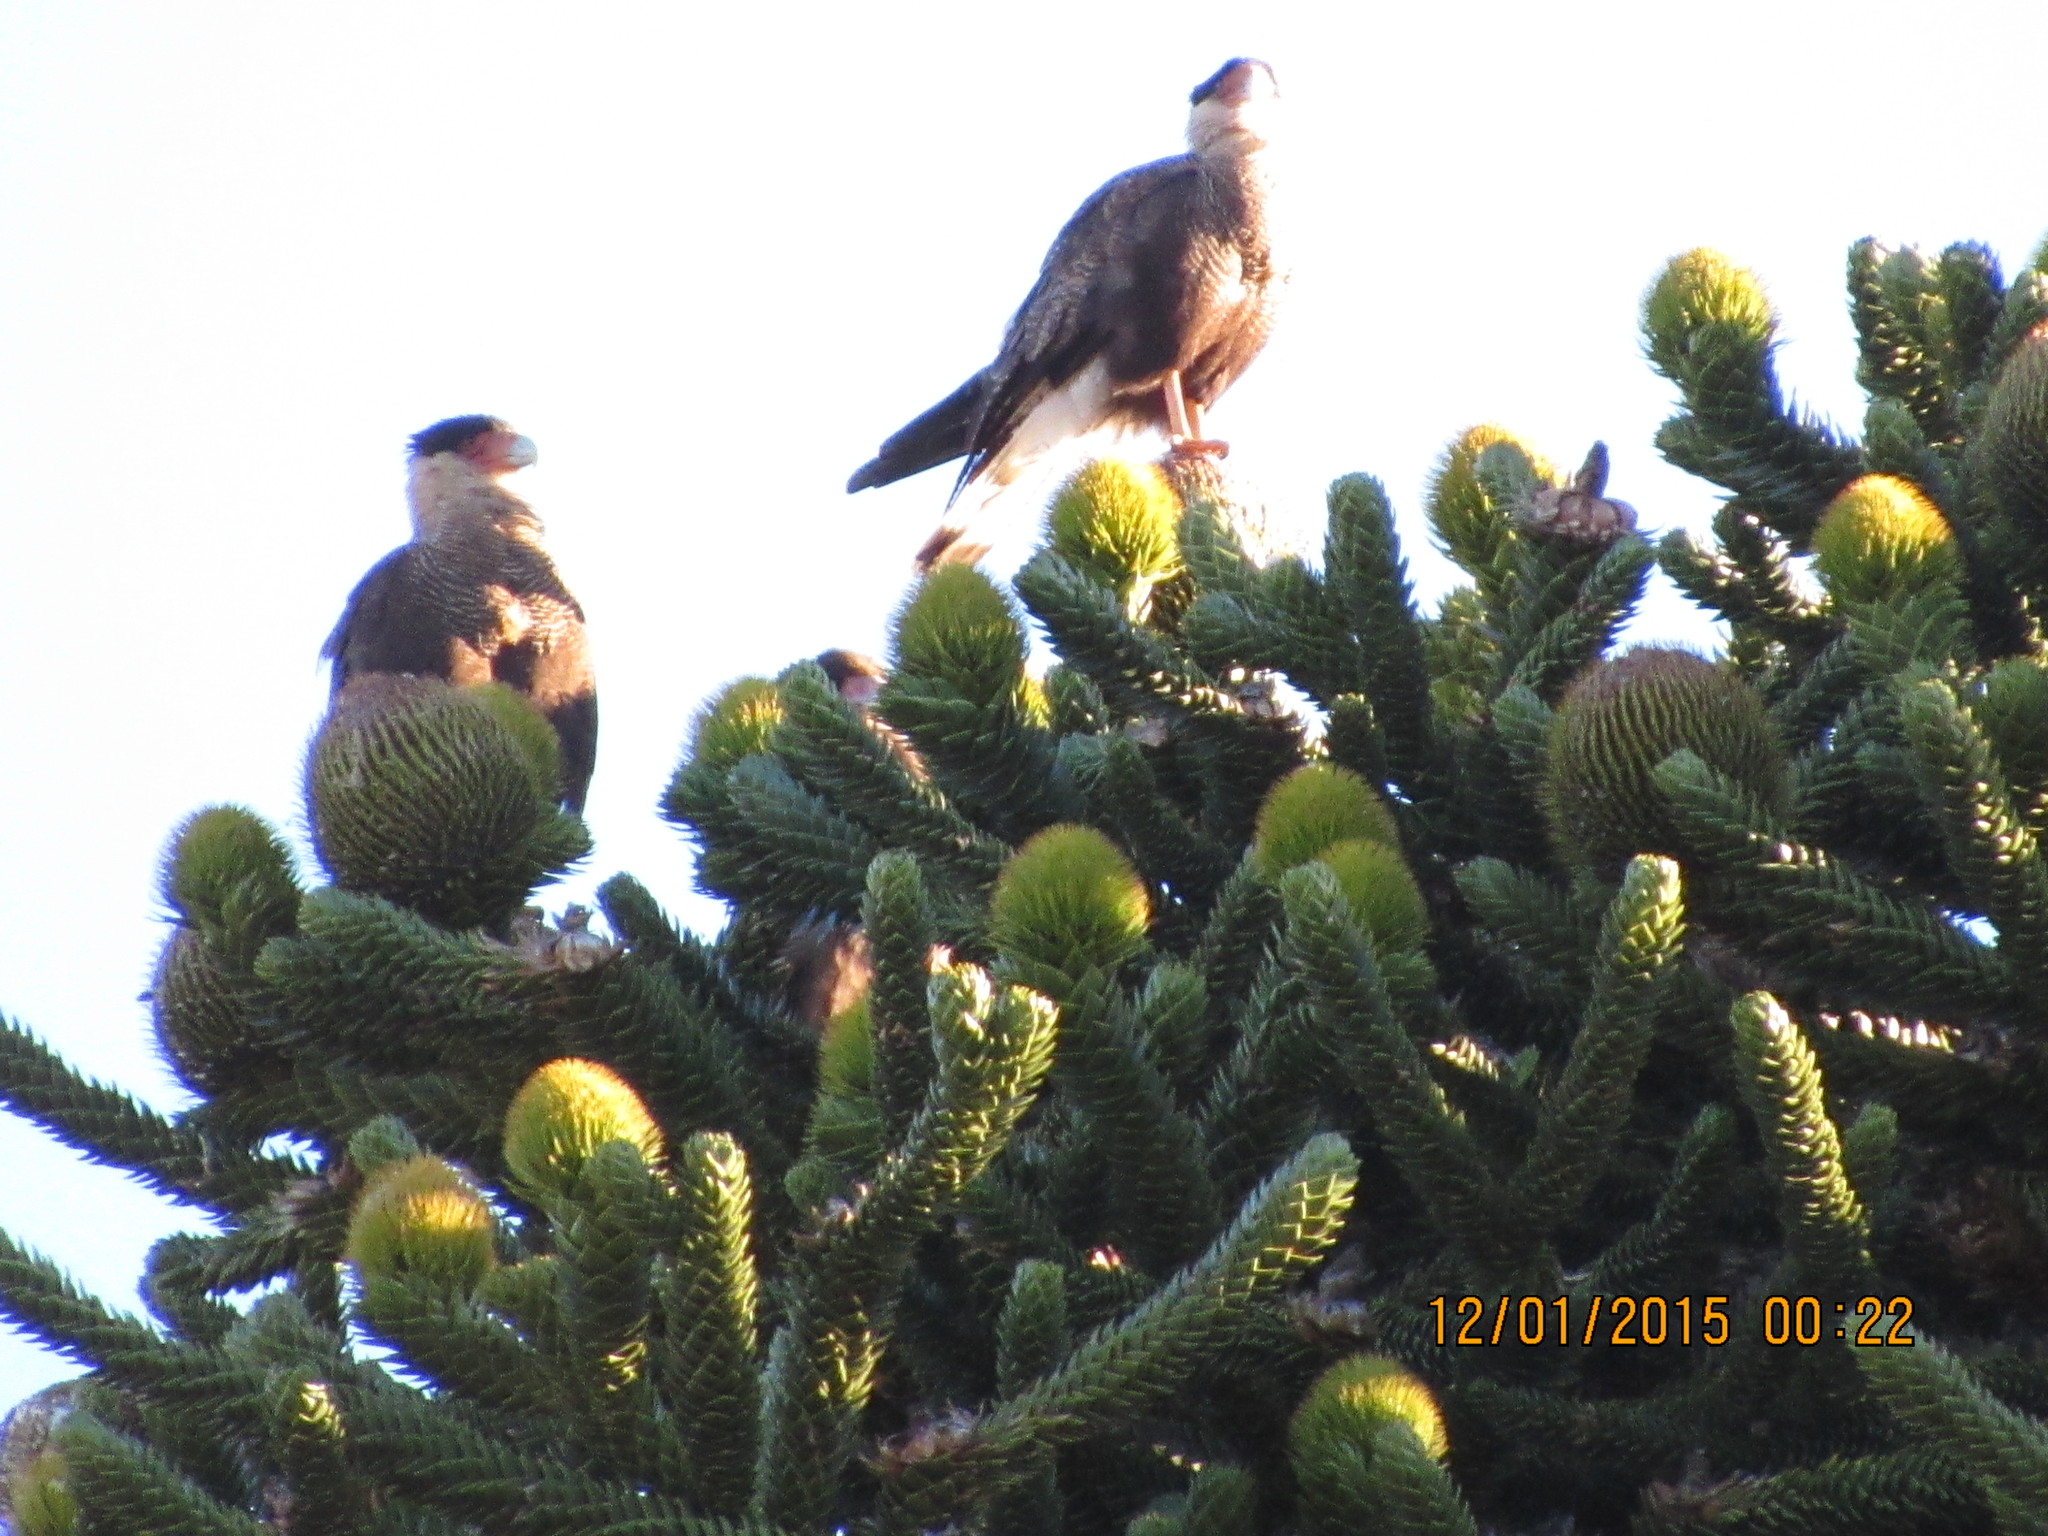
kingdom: Animalia
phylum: Chordata
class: Aves
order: Falconiformes
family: Falconidae
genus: Caracara
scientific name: Caracara plancus
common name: Southern caracara
